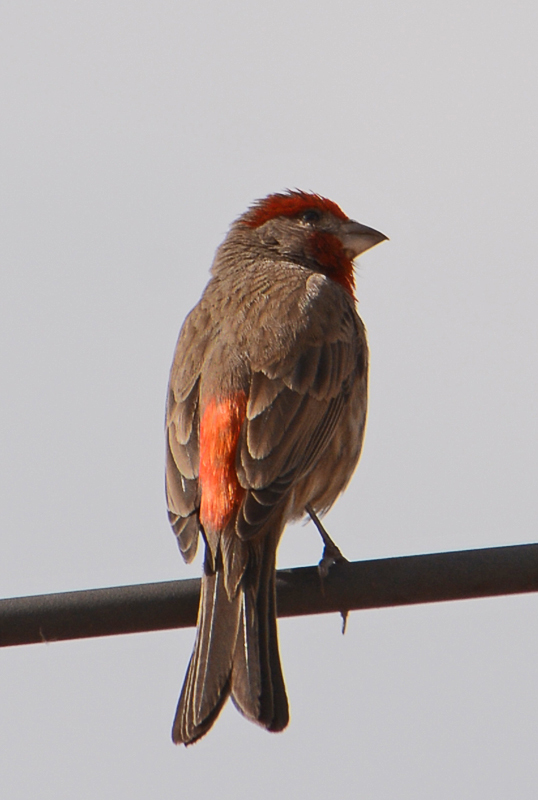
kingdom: Animalia
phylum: Chordata
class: Aves
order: Passeriformes
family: Fringillidae
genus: Haemorhous
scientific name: Haemorhous mexicanus
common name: House finch
